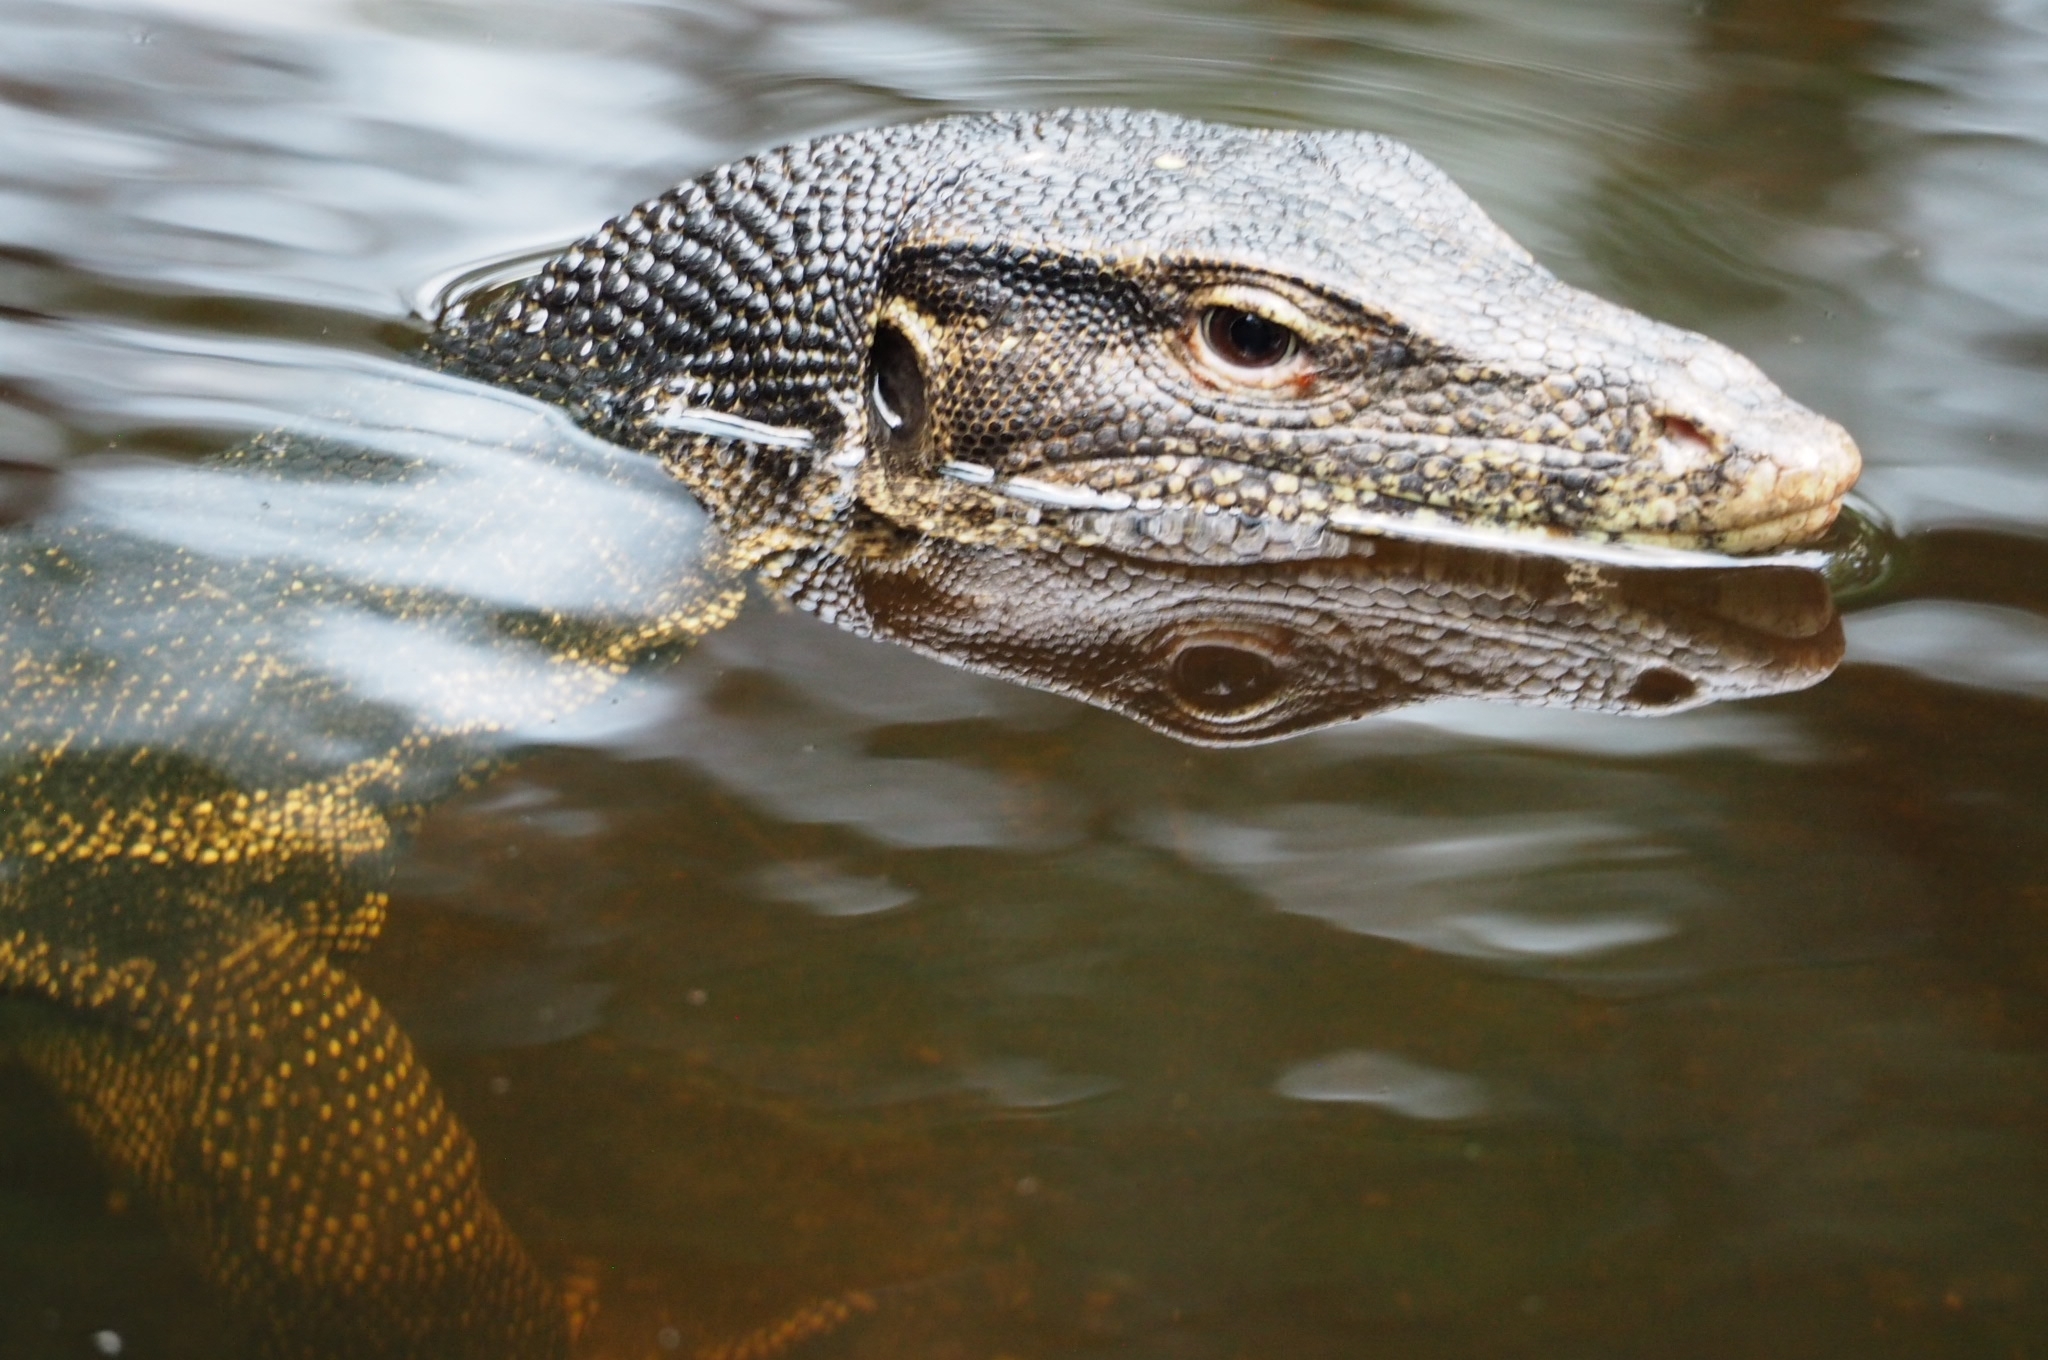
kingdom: Animalia
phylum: Chordata
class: Squamata
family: Varanidae
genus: Varanus
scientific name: Varanus salvator
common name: Common water monitor
